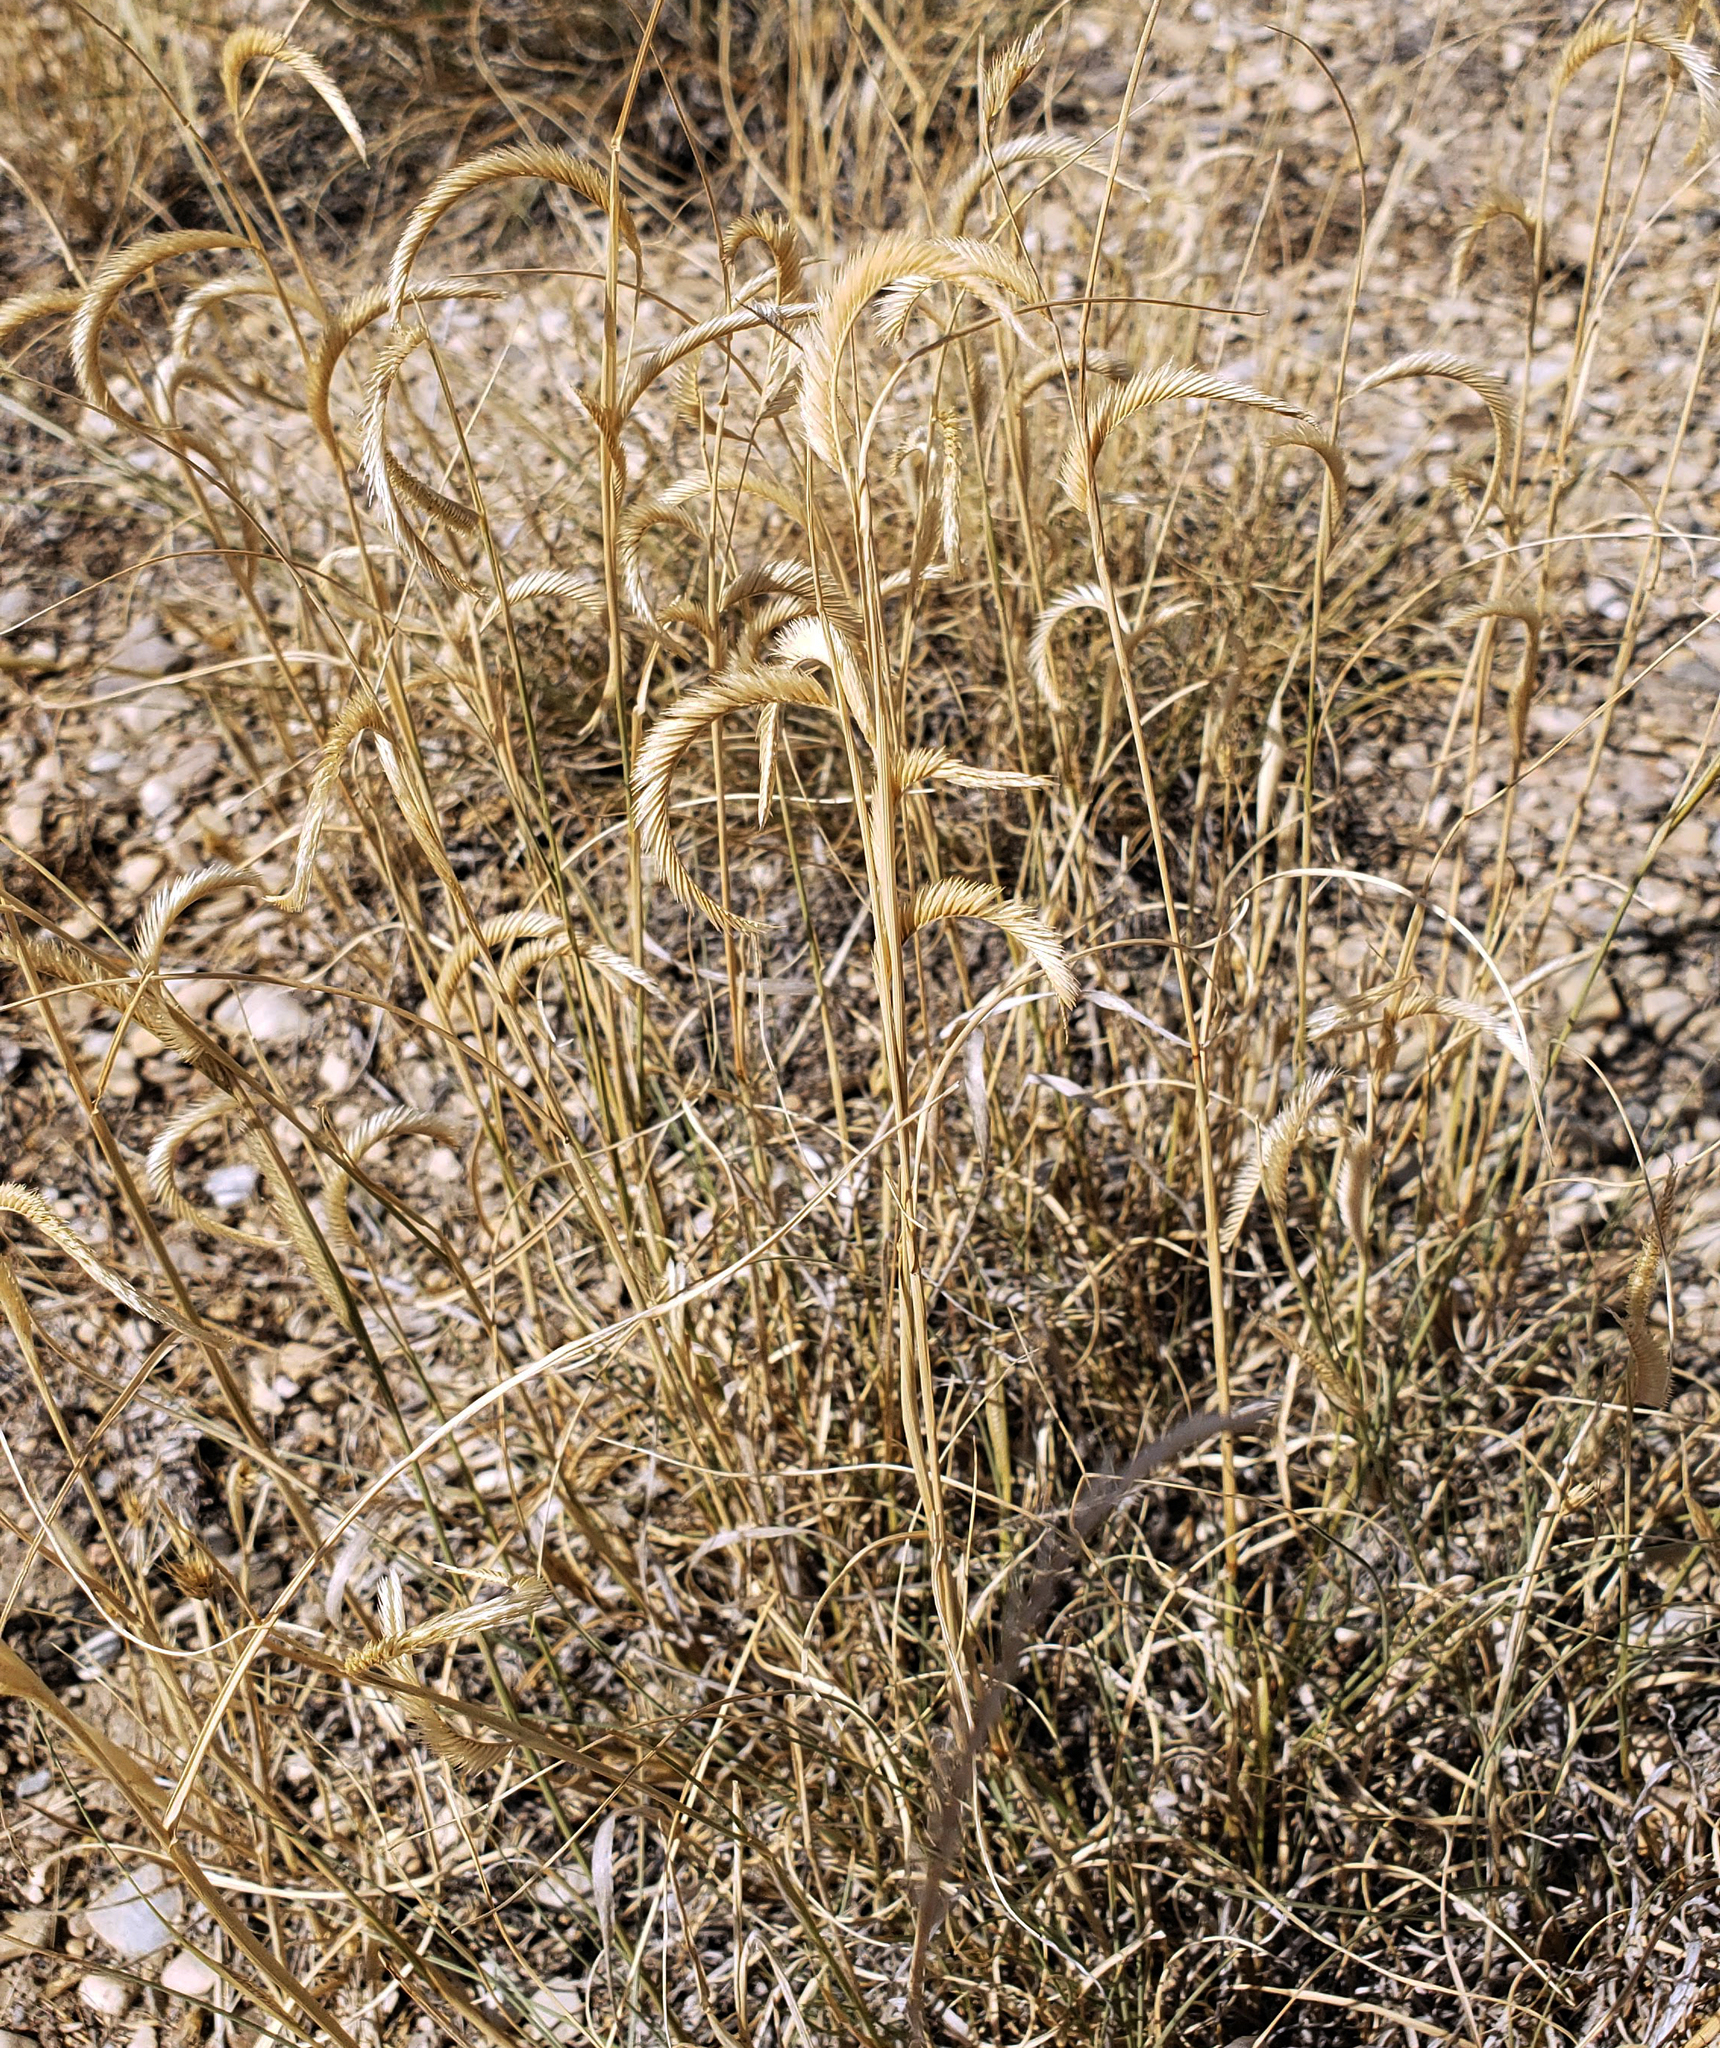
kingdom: Plantae
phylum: Tracheophyta
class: Liliopsida
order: Poales
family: Poaceae
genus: Bouteloua
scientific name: Bouteloua gracilis
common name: Blue grama
